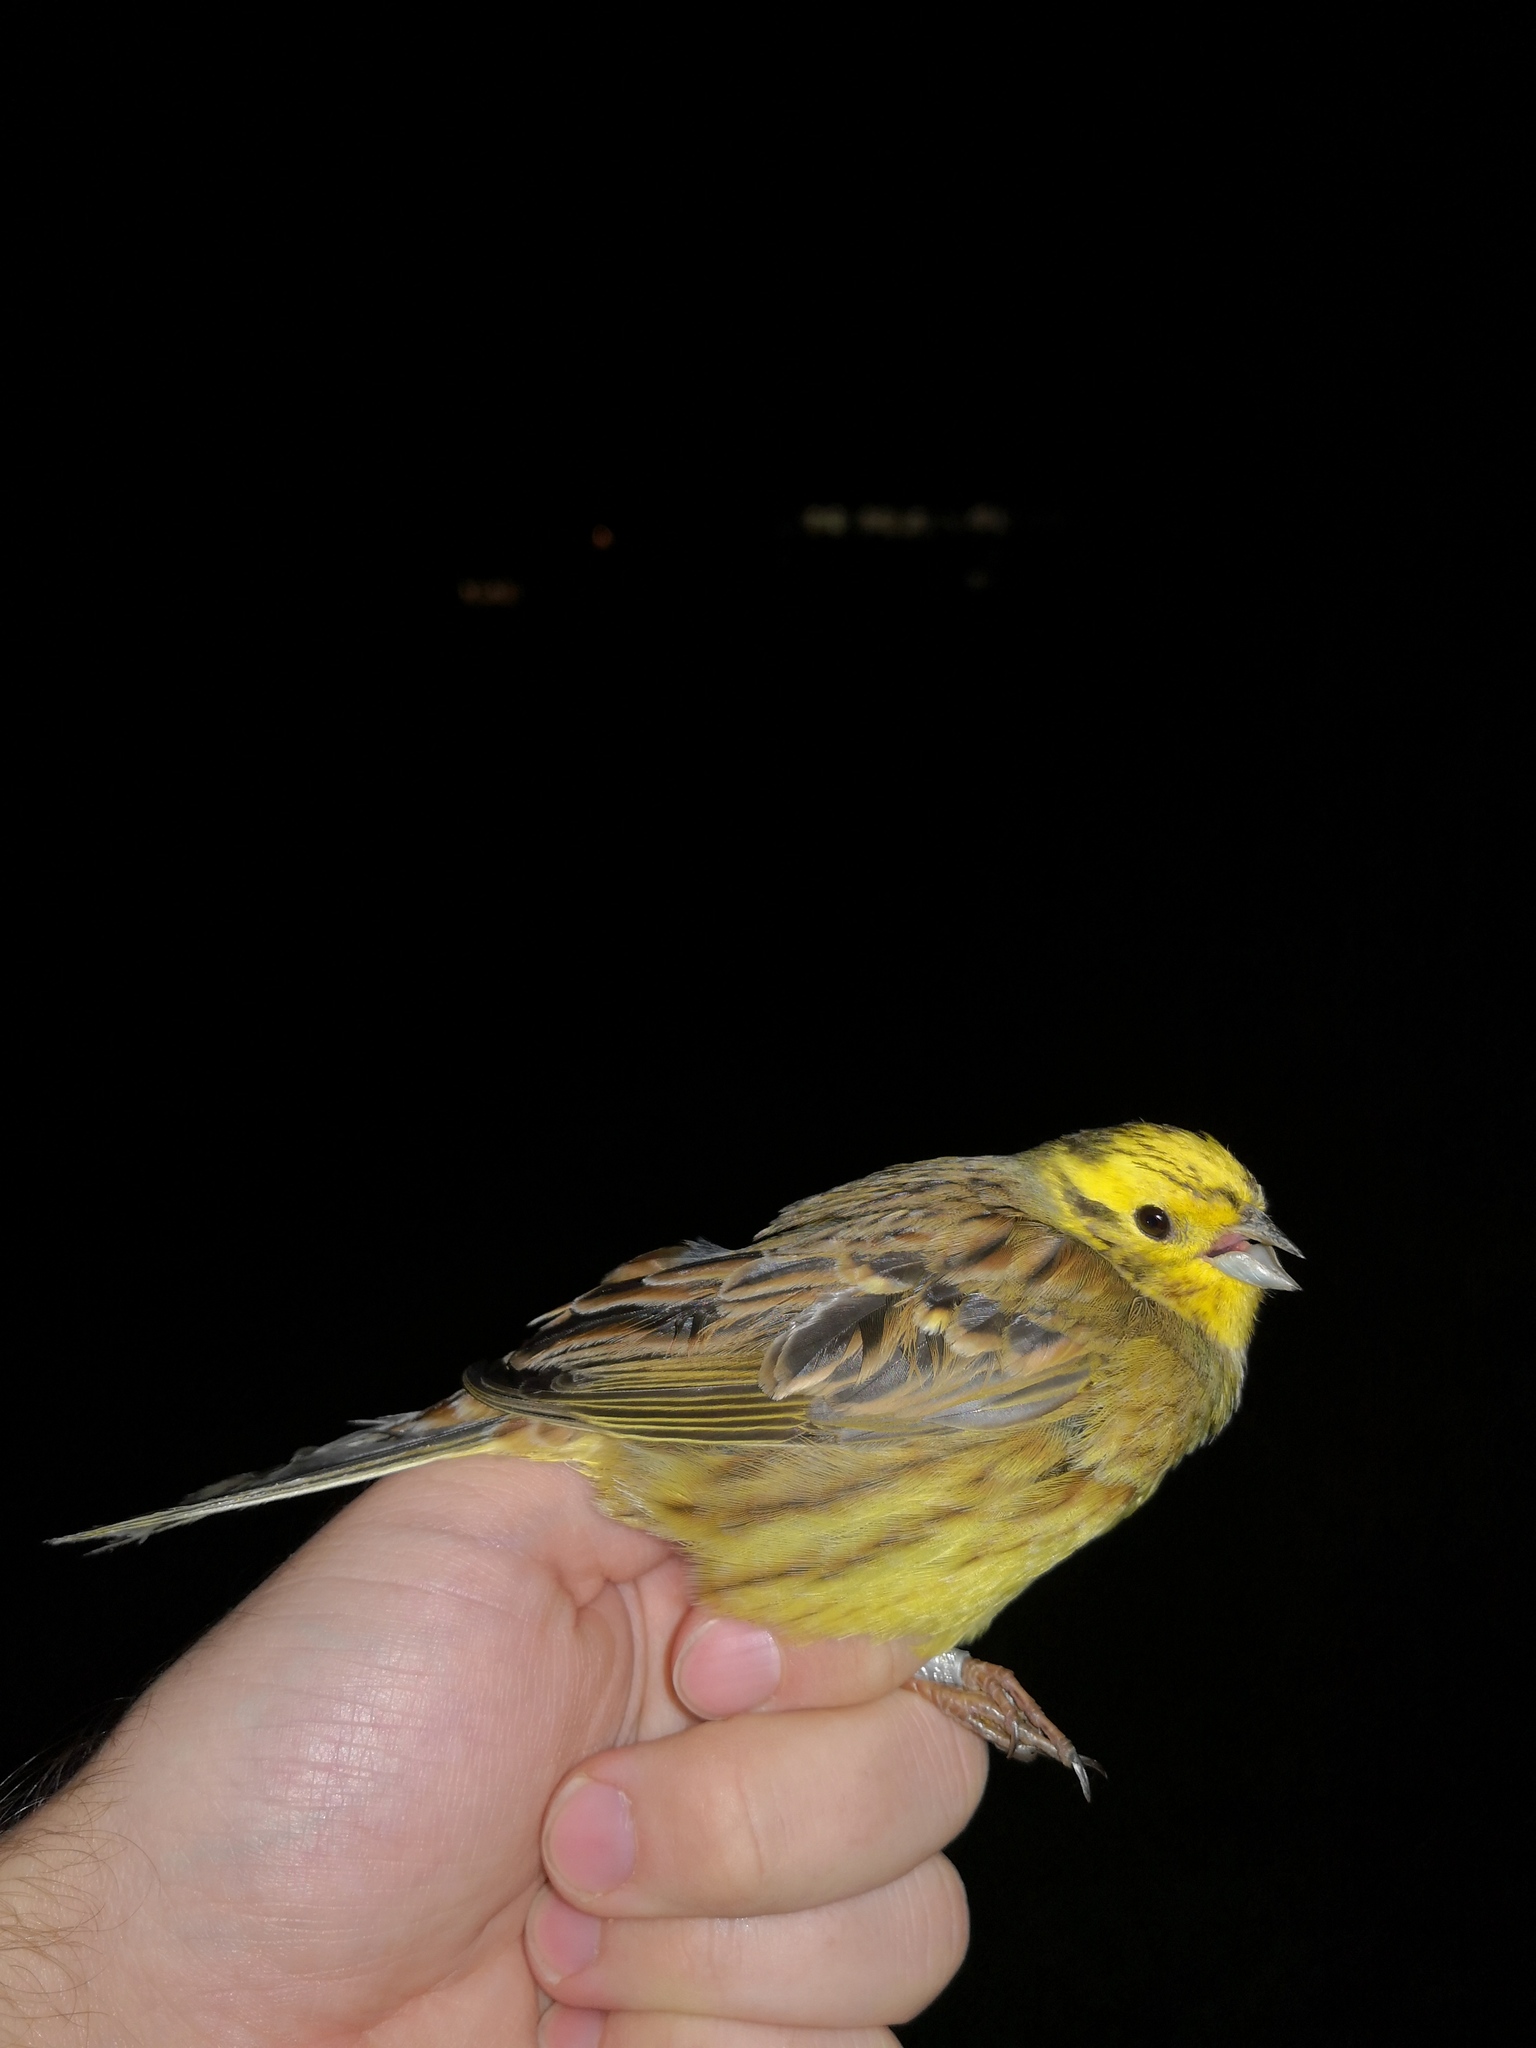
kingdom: Animalia
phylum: Chordata
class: Aves
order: Passeriformes
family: Emberizidae
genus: Emberiza
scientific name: Emberiza citrinella
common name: Yellowhammer
